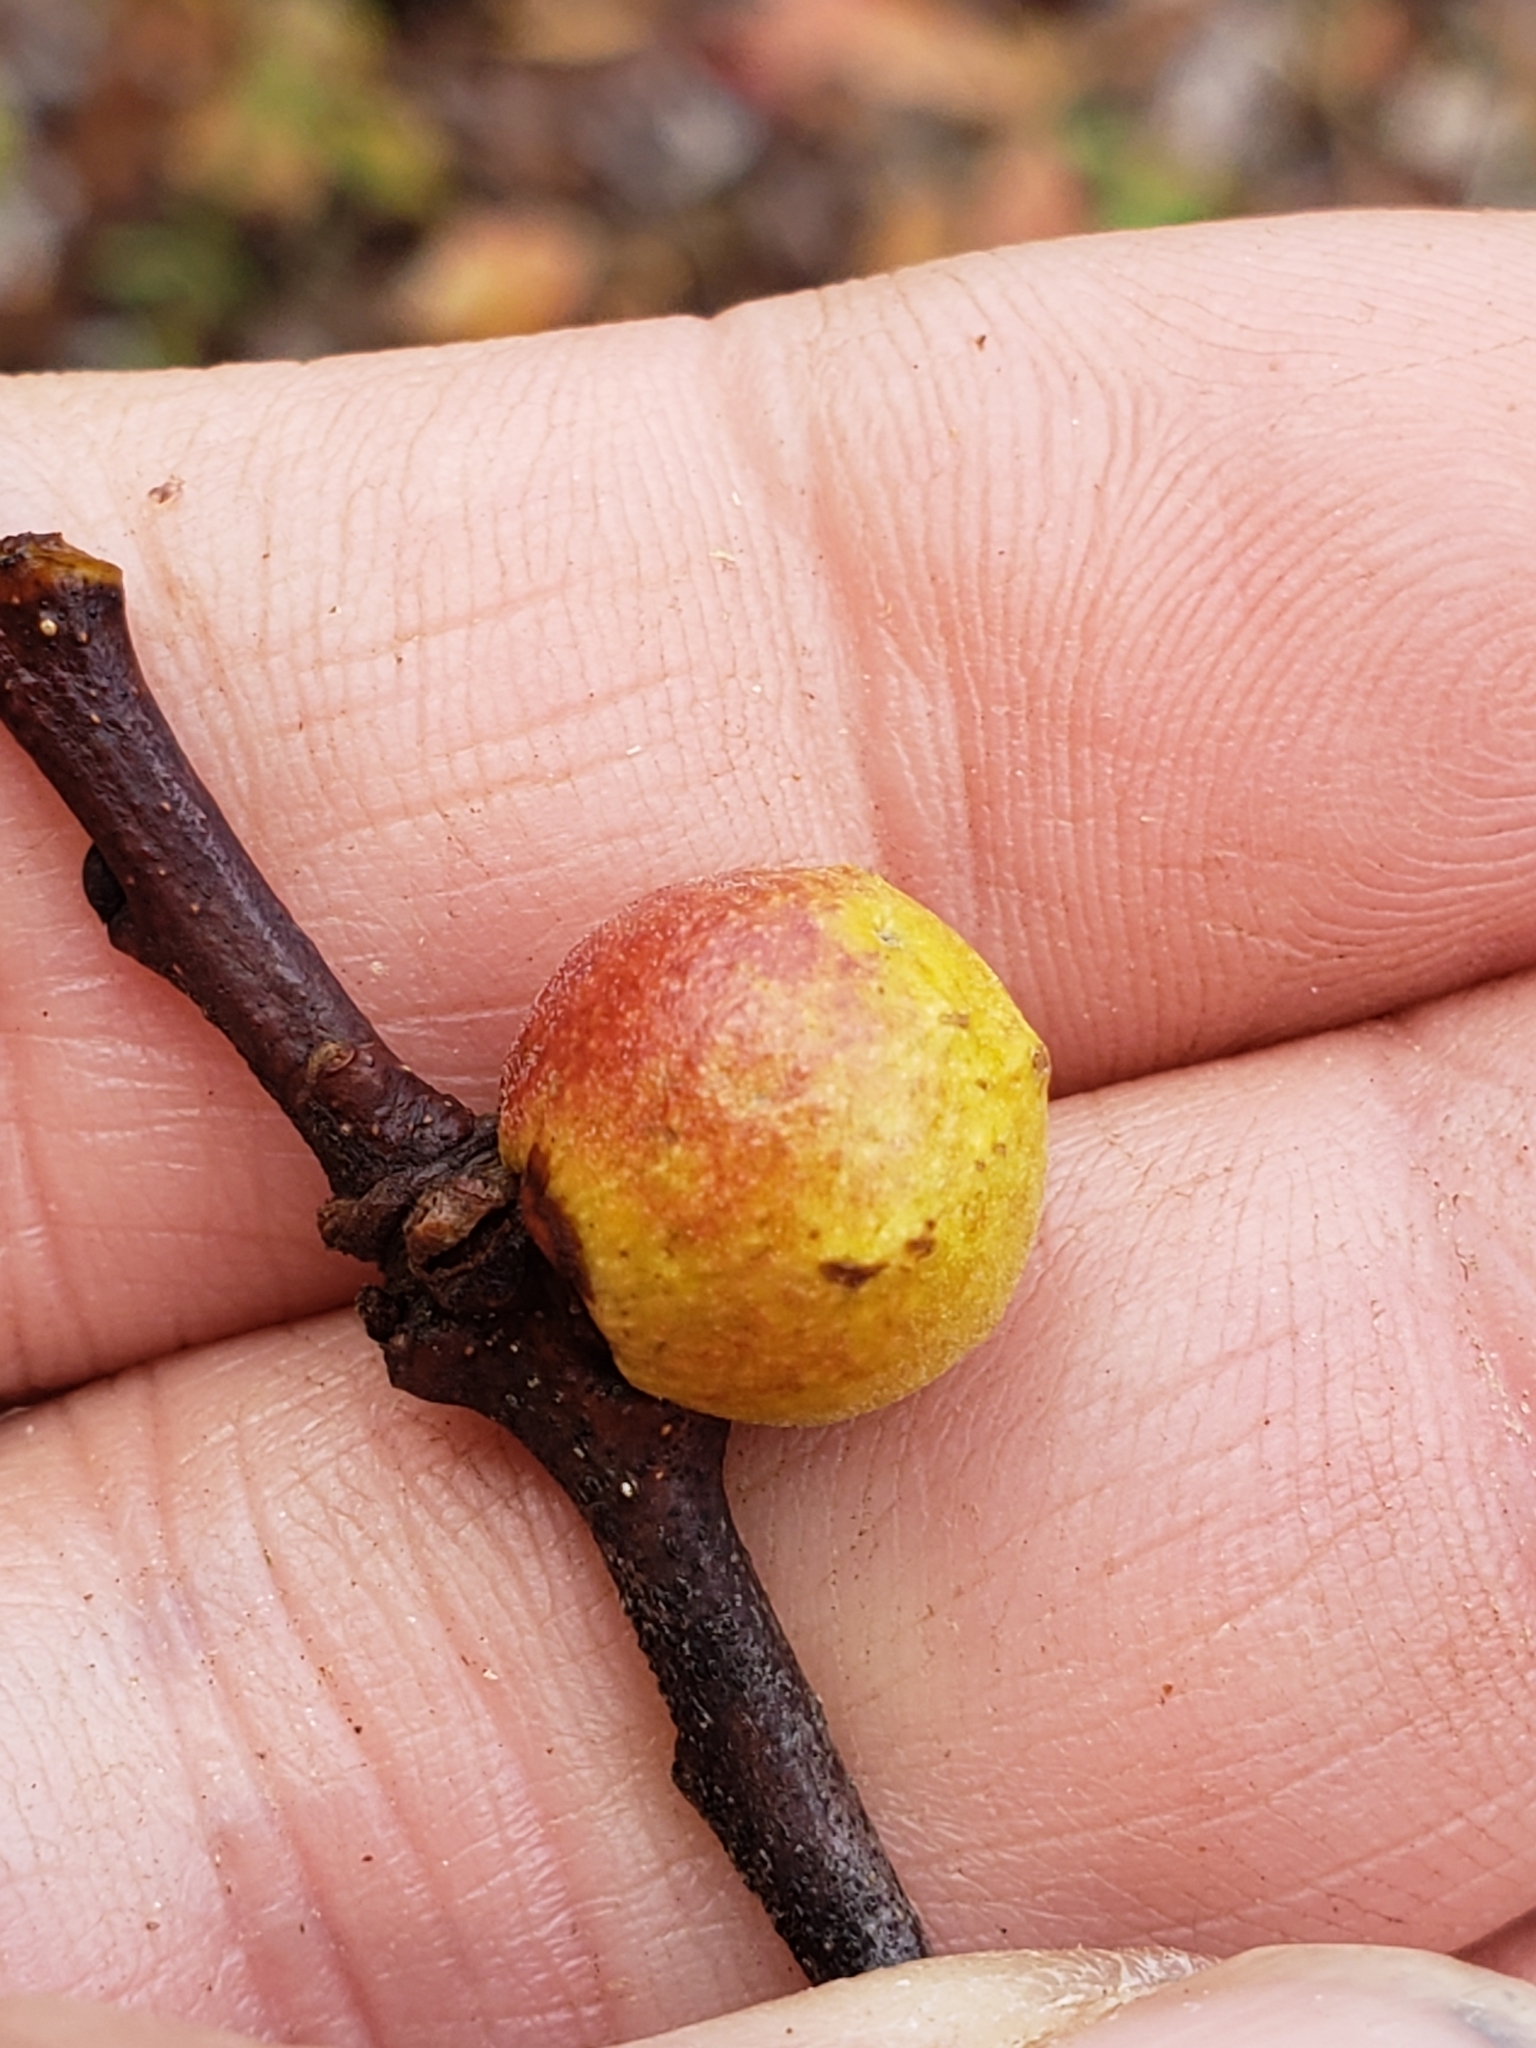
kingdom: Animalia
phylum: Arthropoda
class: Insecta
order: Hymenoptera
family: Cynipidae
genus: Disholcaspis
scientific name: Disholcaspis quercusglobulus
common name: Round bullet gall wasp
